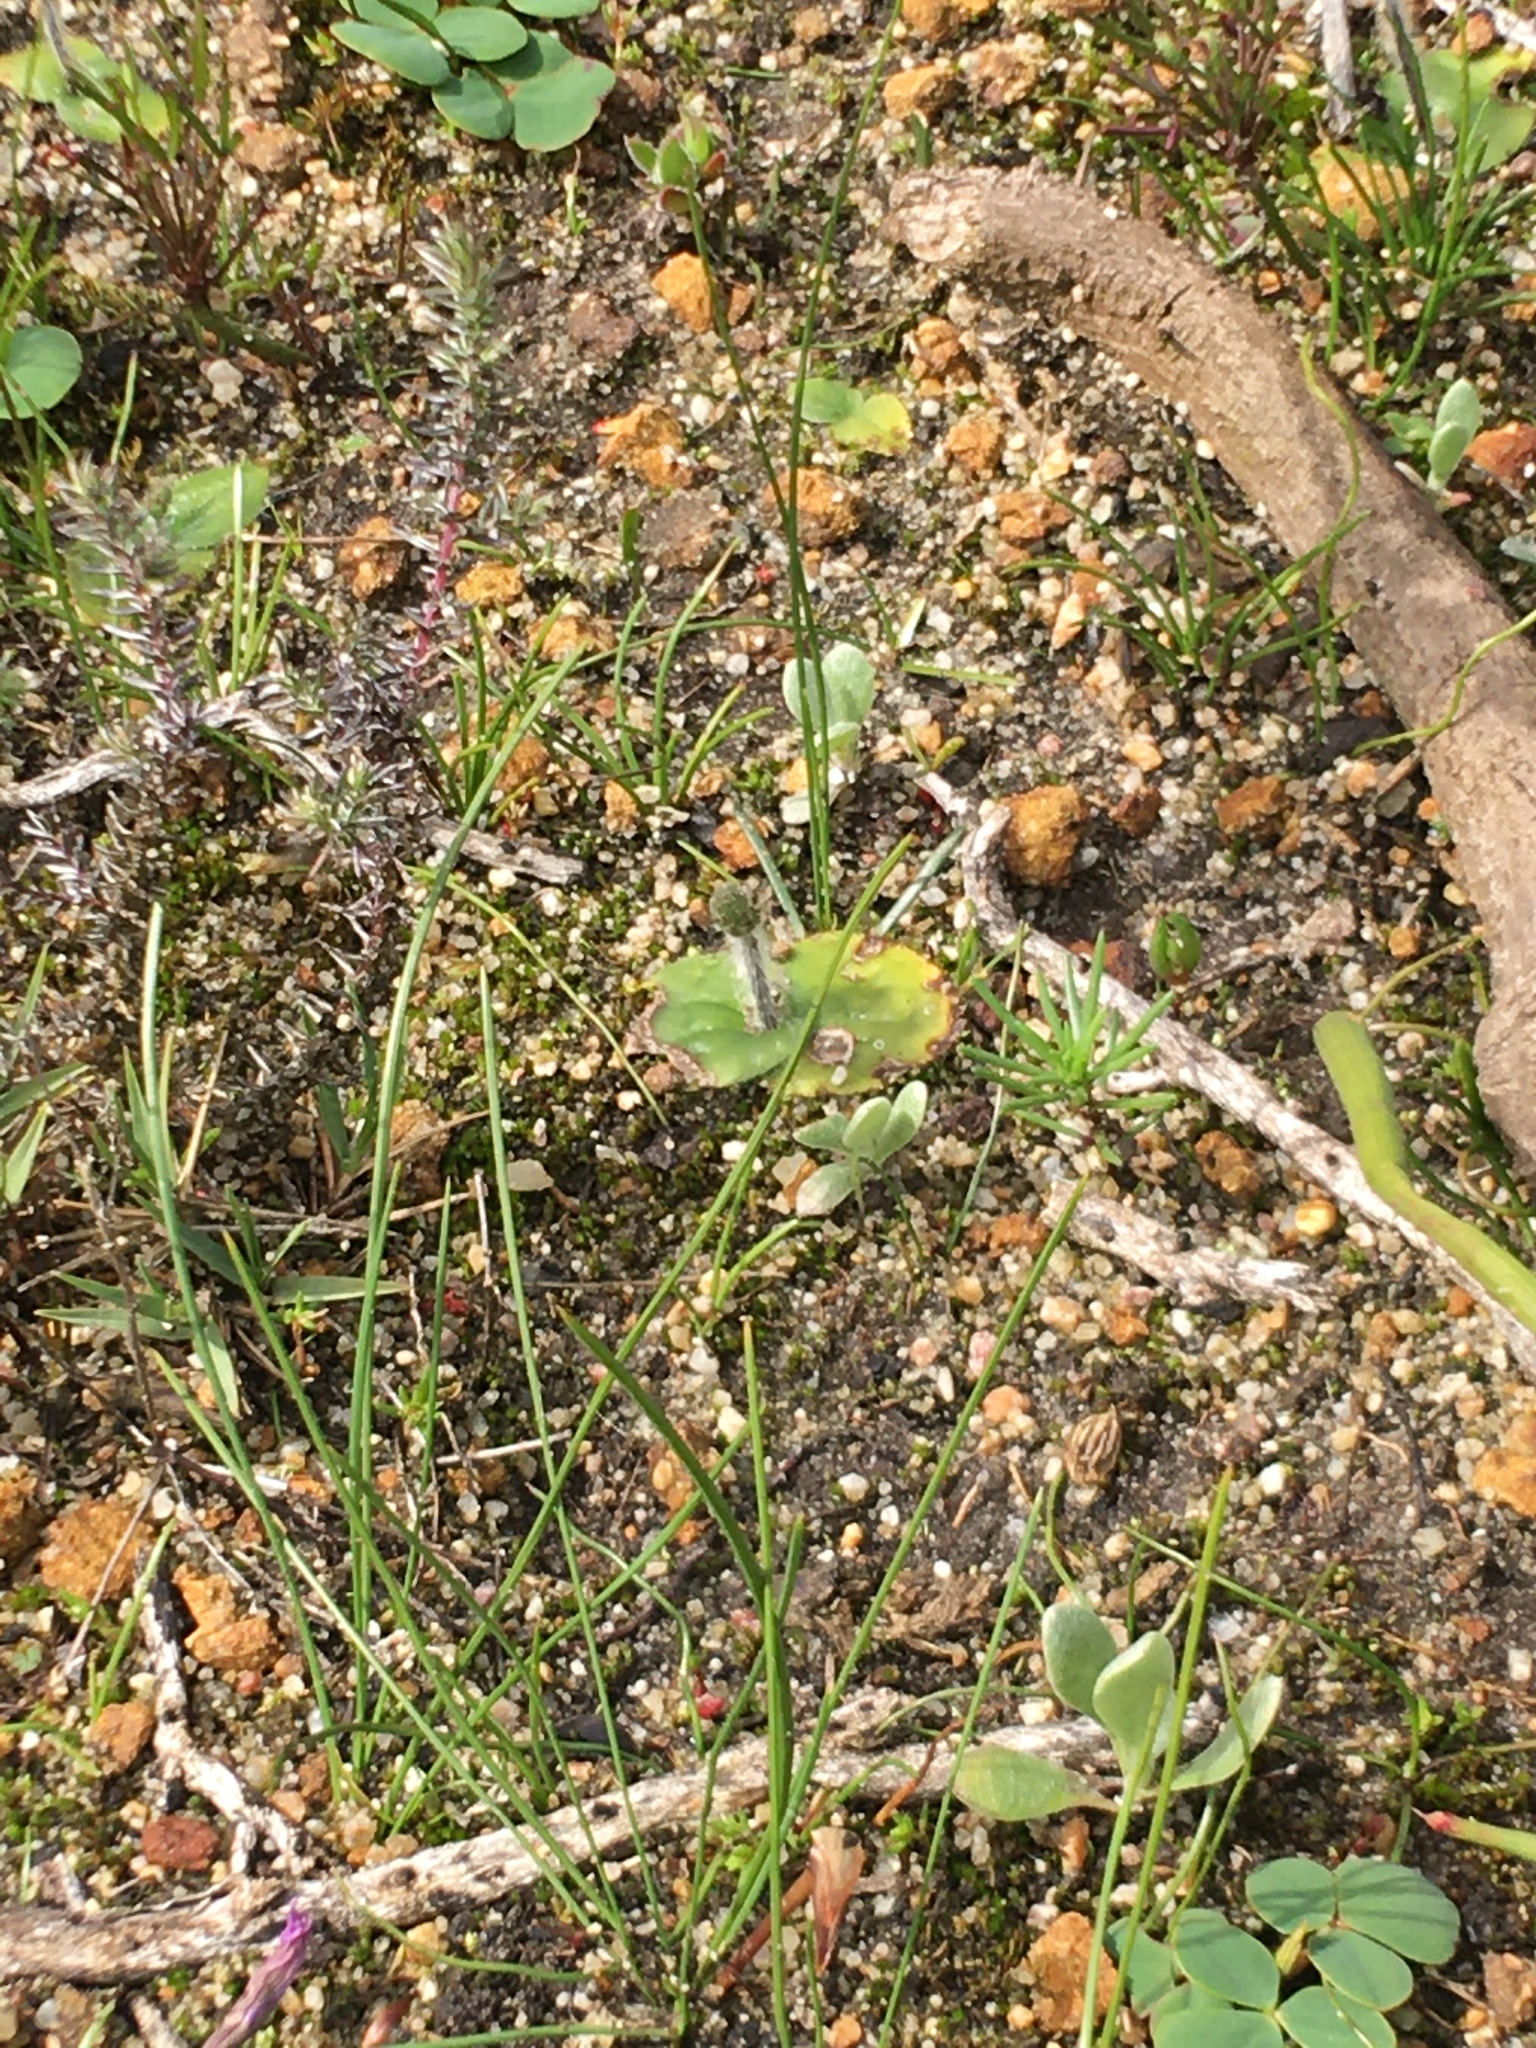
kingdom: Plantae
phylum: Tracheophyta
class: Liliopsida
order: Asparagales
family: Orchidaceae
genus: Holothrix
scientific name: Holothrix villosa
